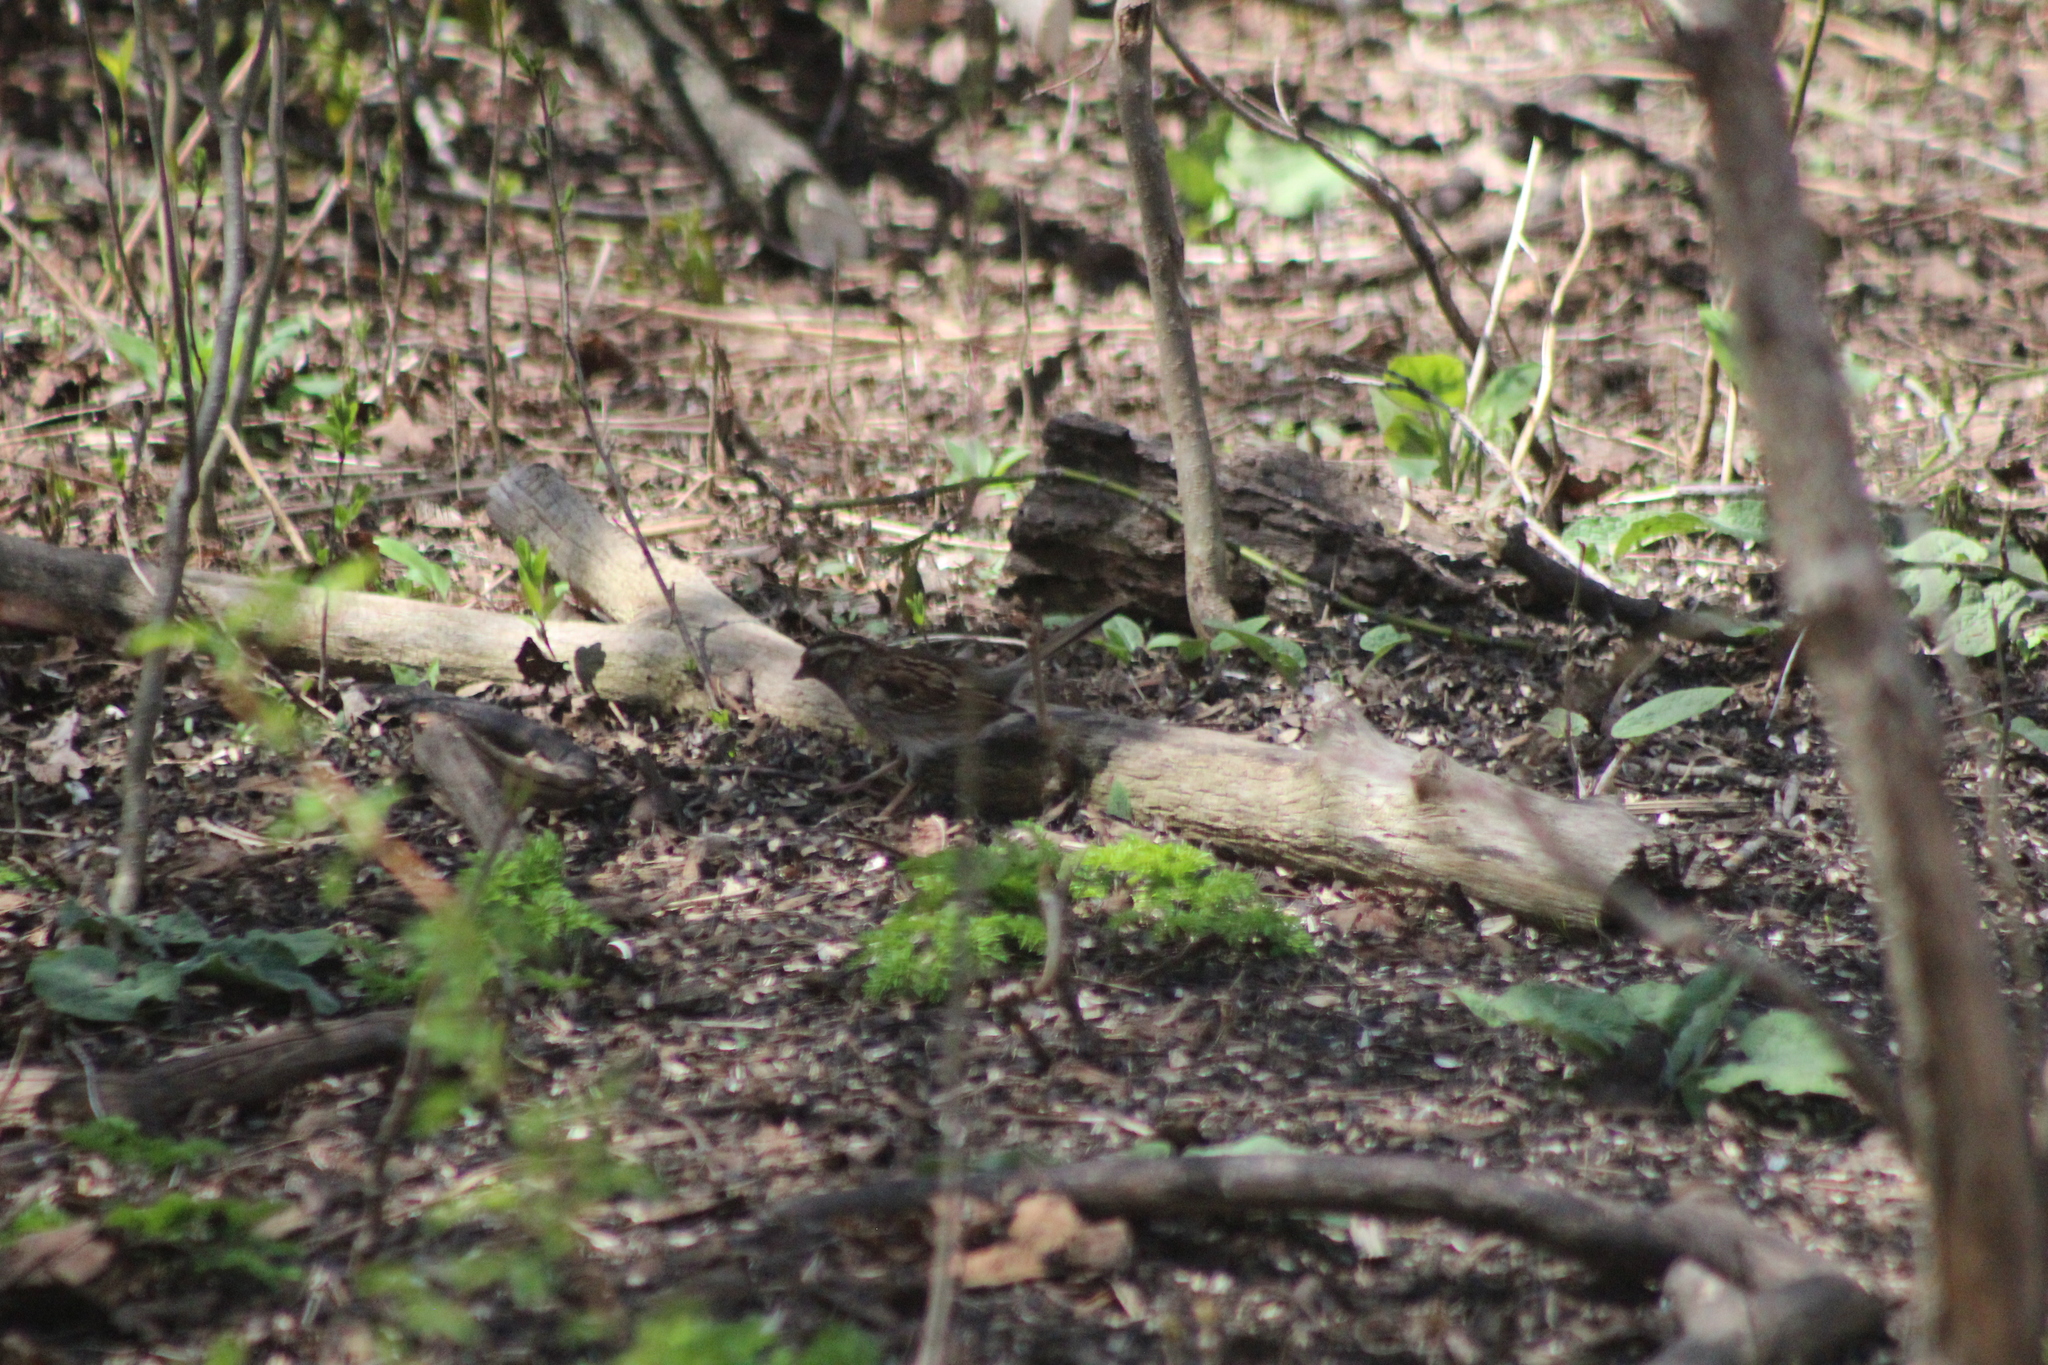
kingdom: Animalia
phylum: Chordata
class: Aves
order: Passeriformes
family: Passerellidae
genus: Zonotrichia
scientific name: Zonotrichia albicollis
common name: White-throated sparrow
